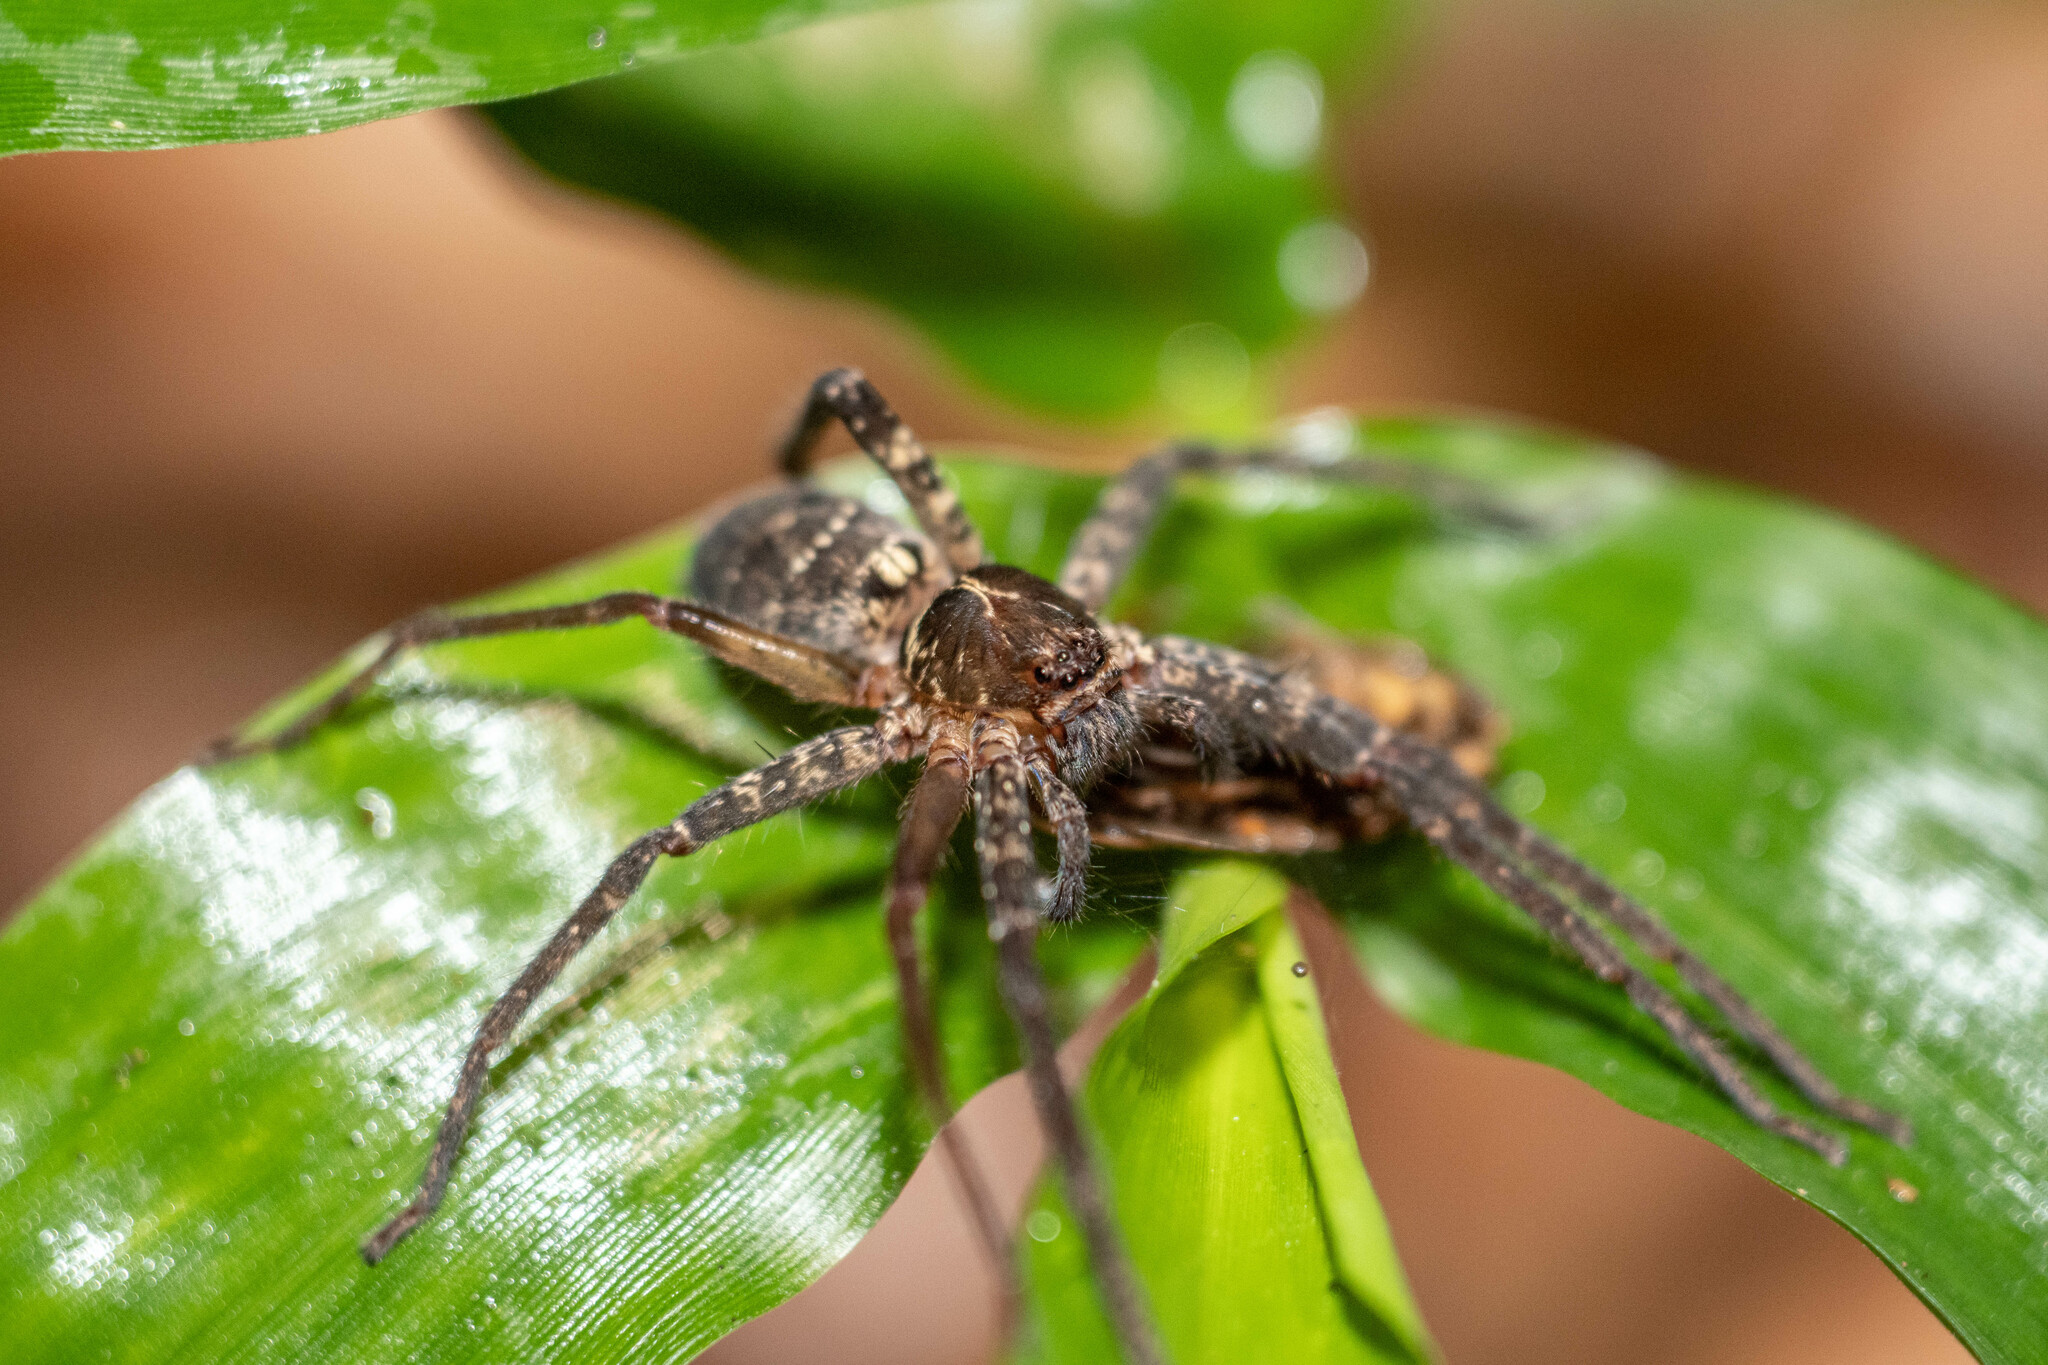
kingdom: Animalia
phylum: Arthropoda
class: Arachnida
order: Araneae
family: Sparassidae
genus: Heteropoda
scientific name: Heteropoda amphora
